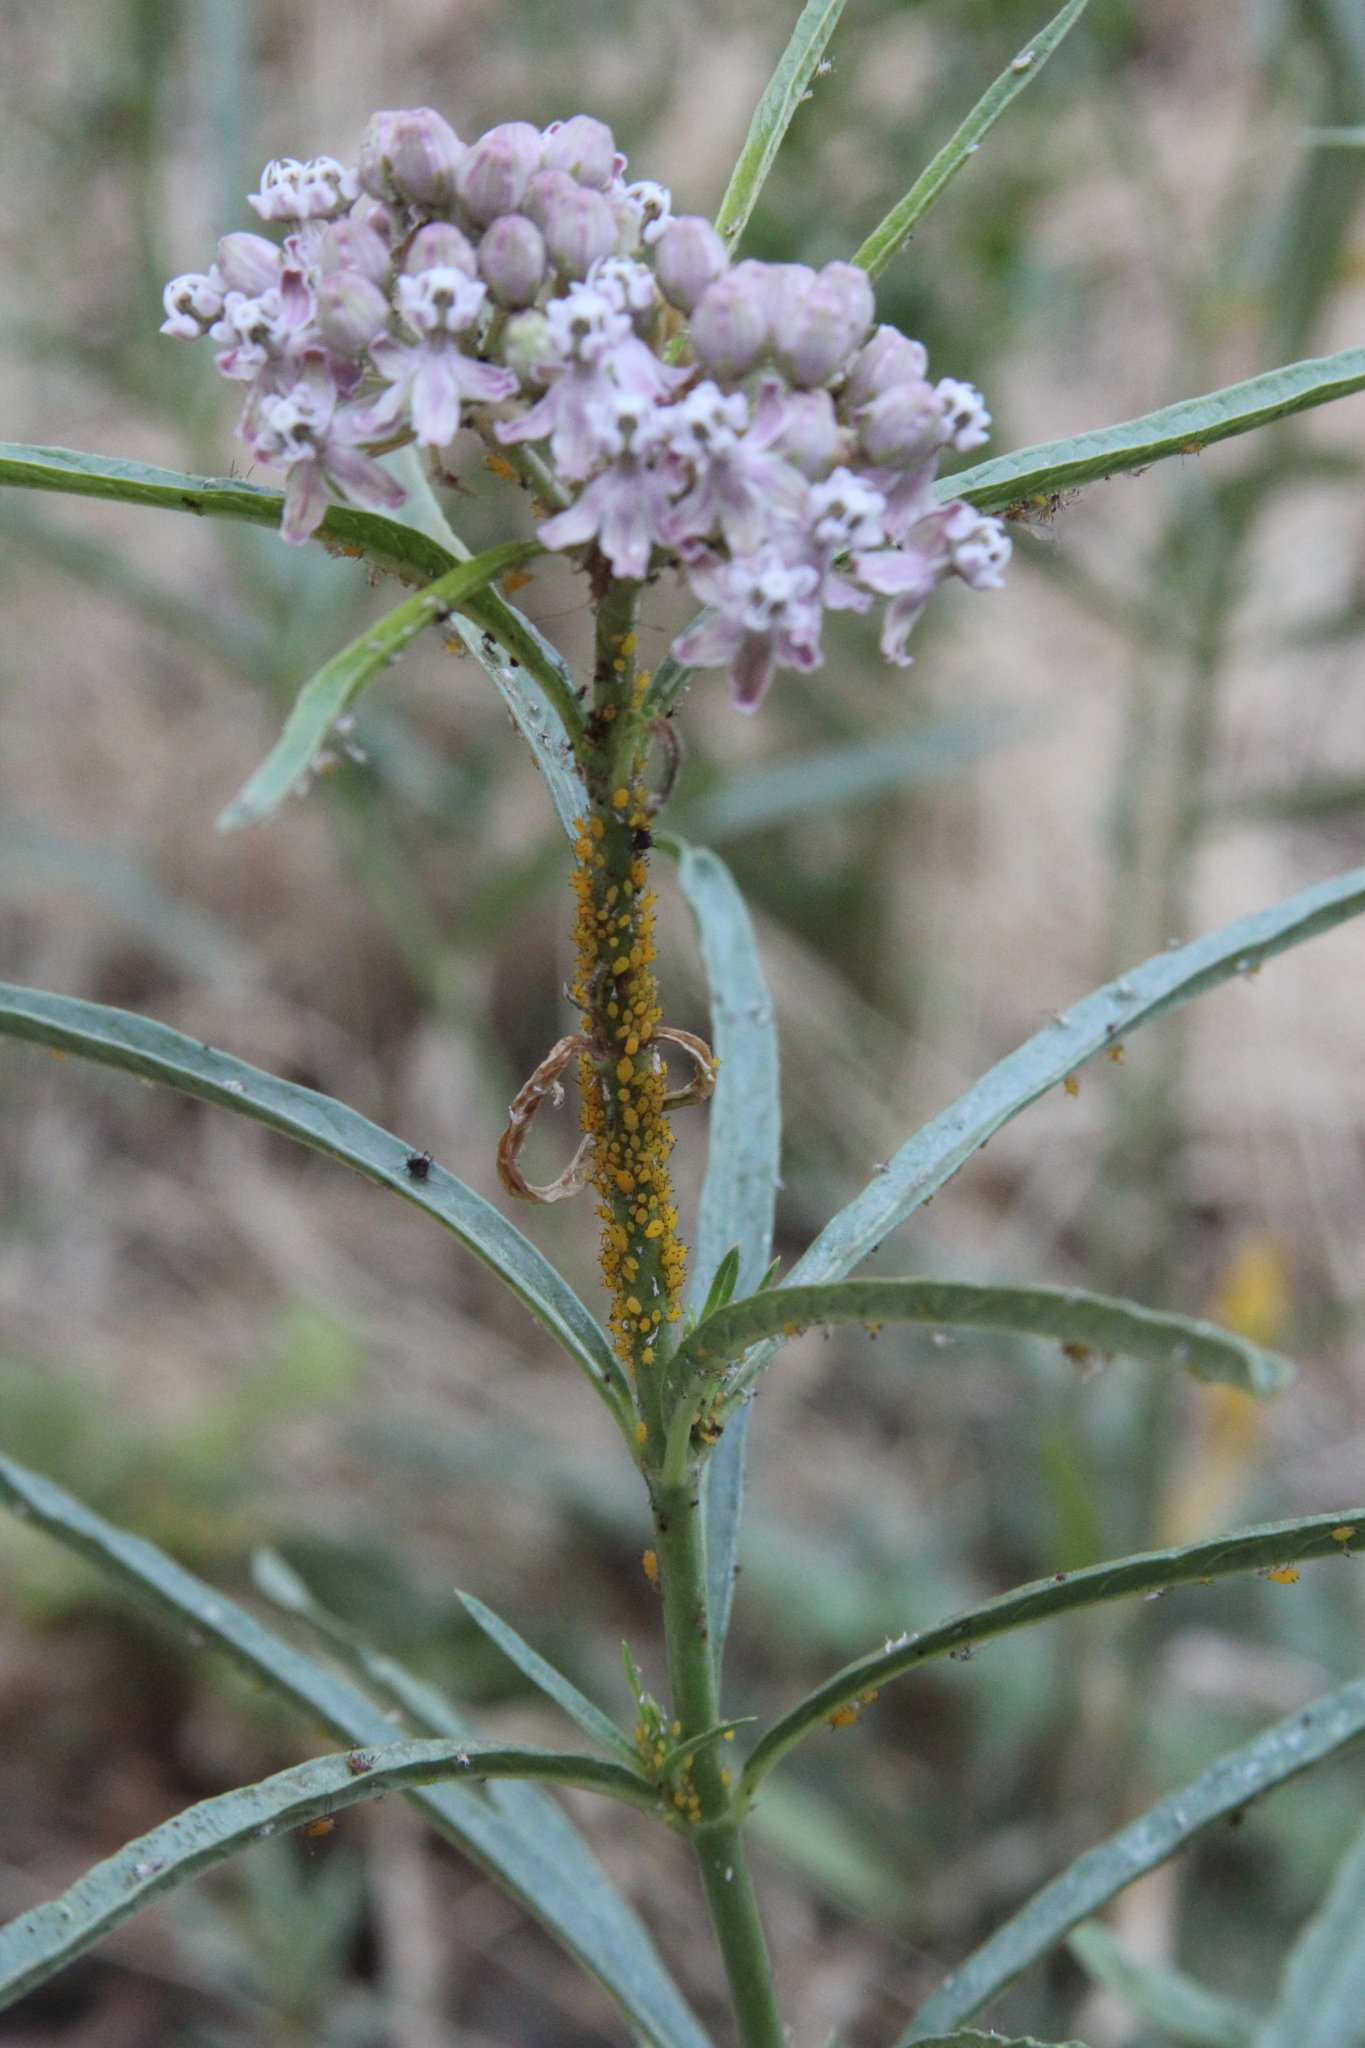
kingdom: Plantae
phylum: Tracheophyta
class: Magnoliopsida
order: Gentianales
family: Apocynaceae
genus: Asclepias
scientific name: Asclepias fascicularis
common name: Mexican milkweed
